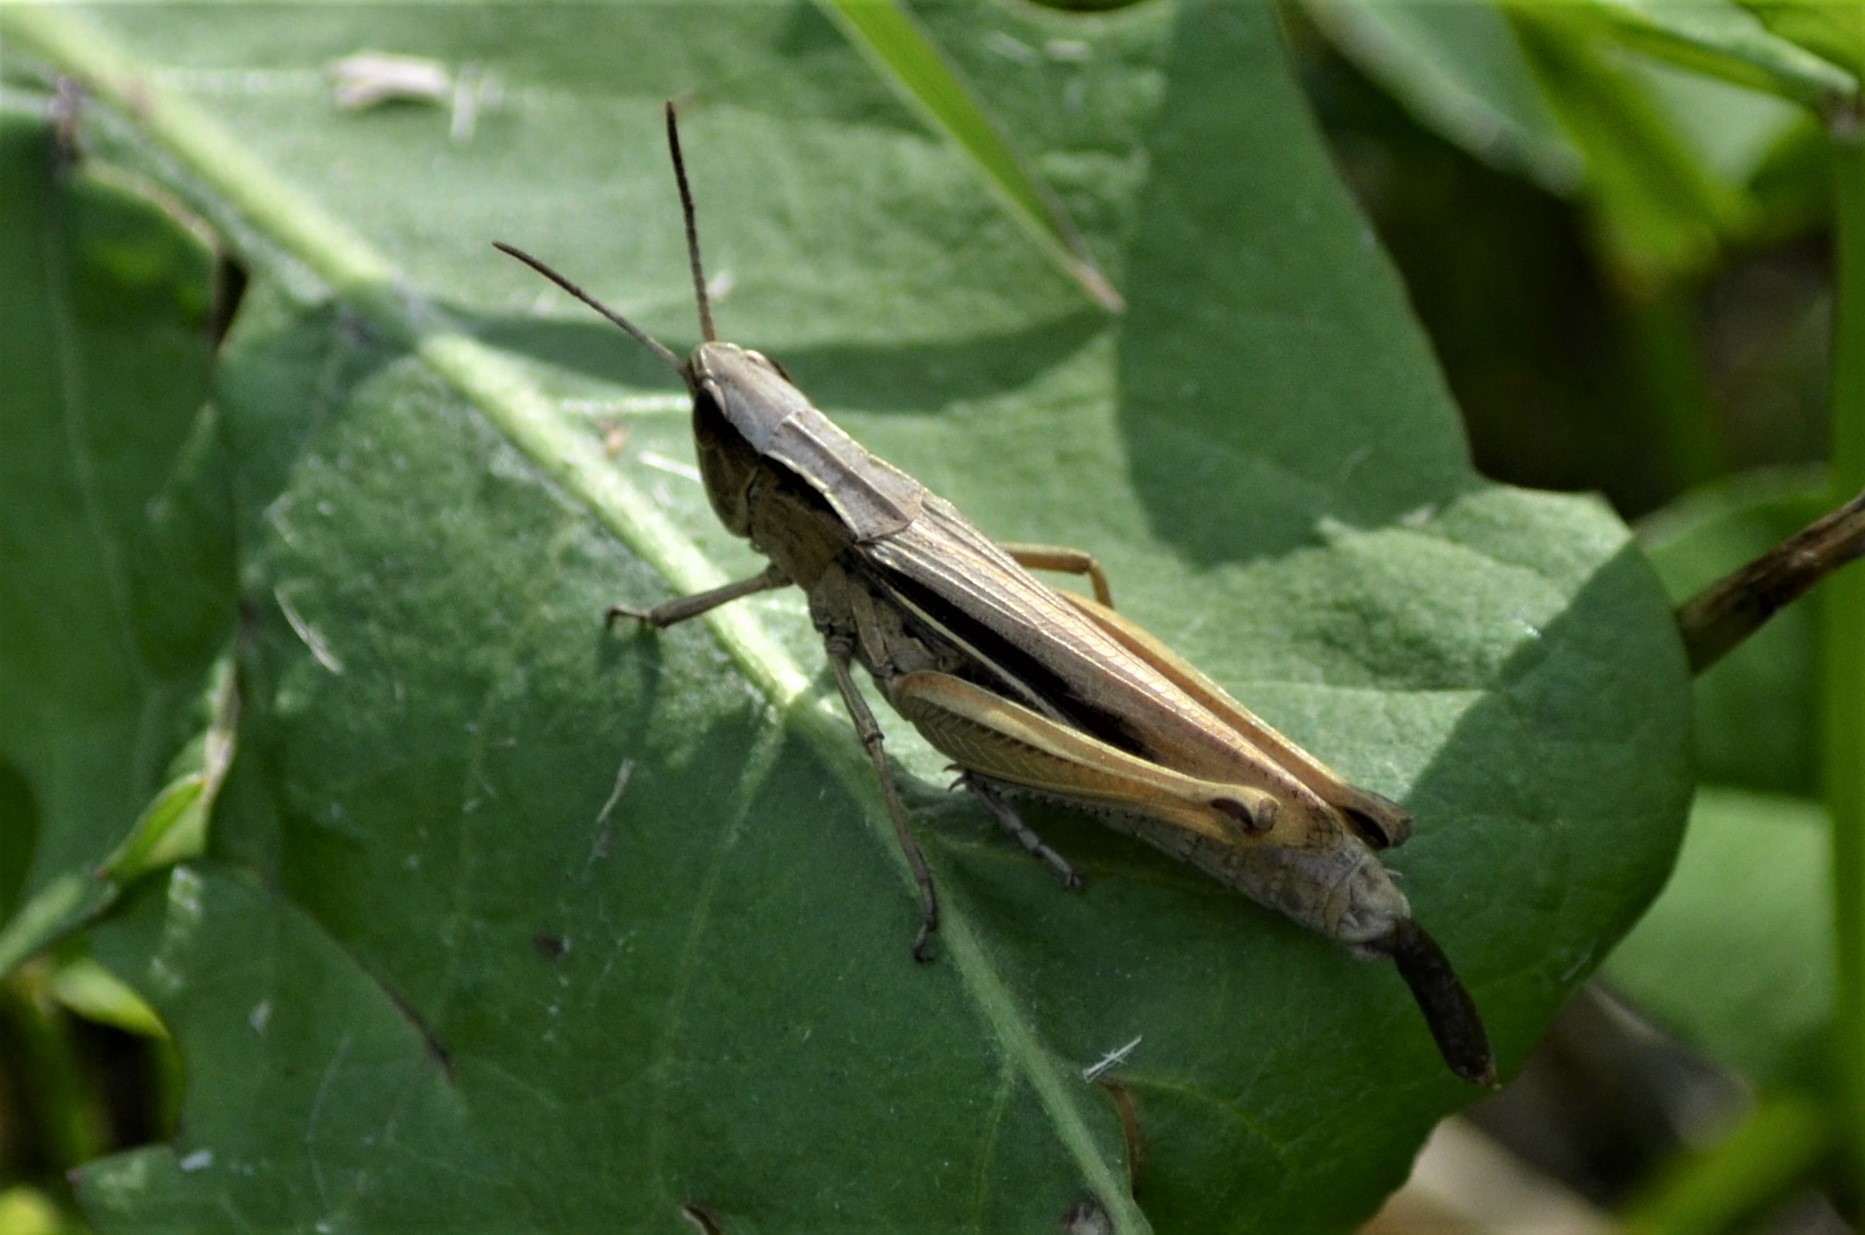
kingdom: Animalia
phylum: Arthropoda
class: Insecta
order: Orthoptera
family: Acrididae
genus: Chorthippus
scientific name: Chorthippus albomarginatus
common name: Lesser marsh grasshopper
